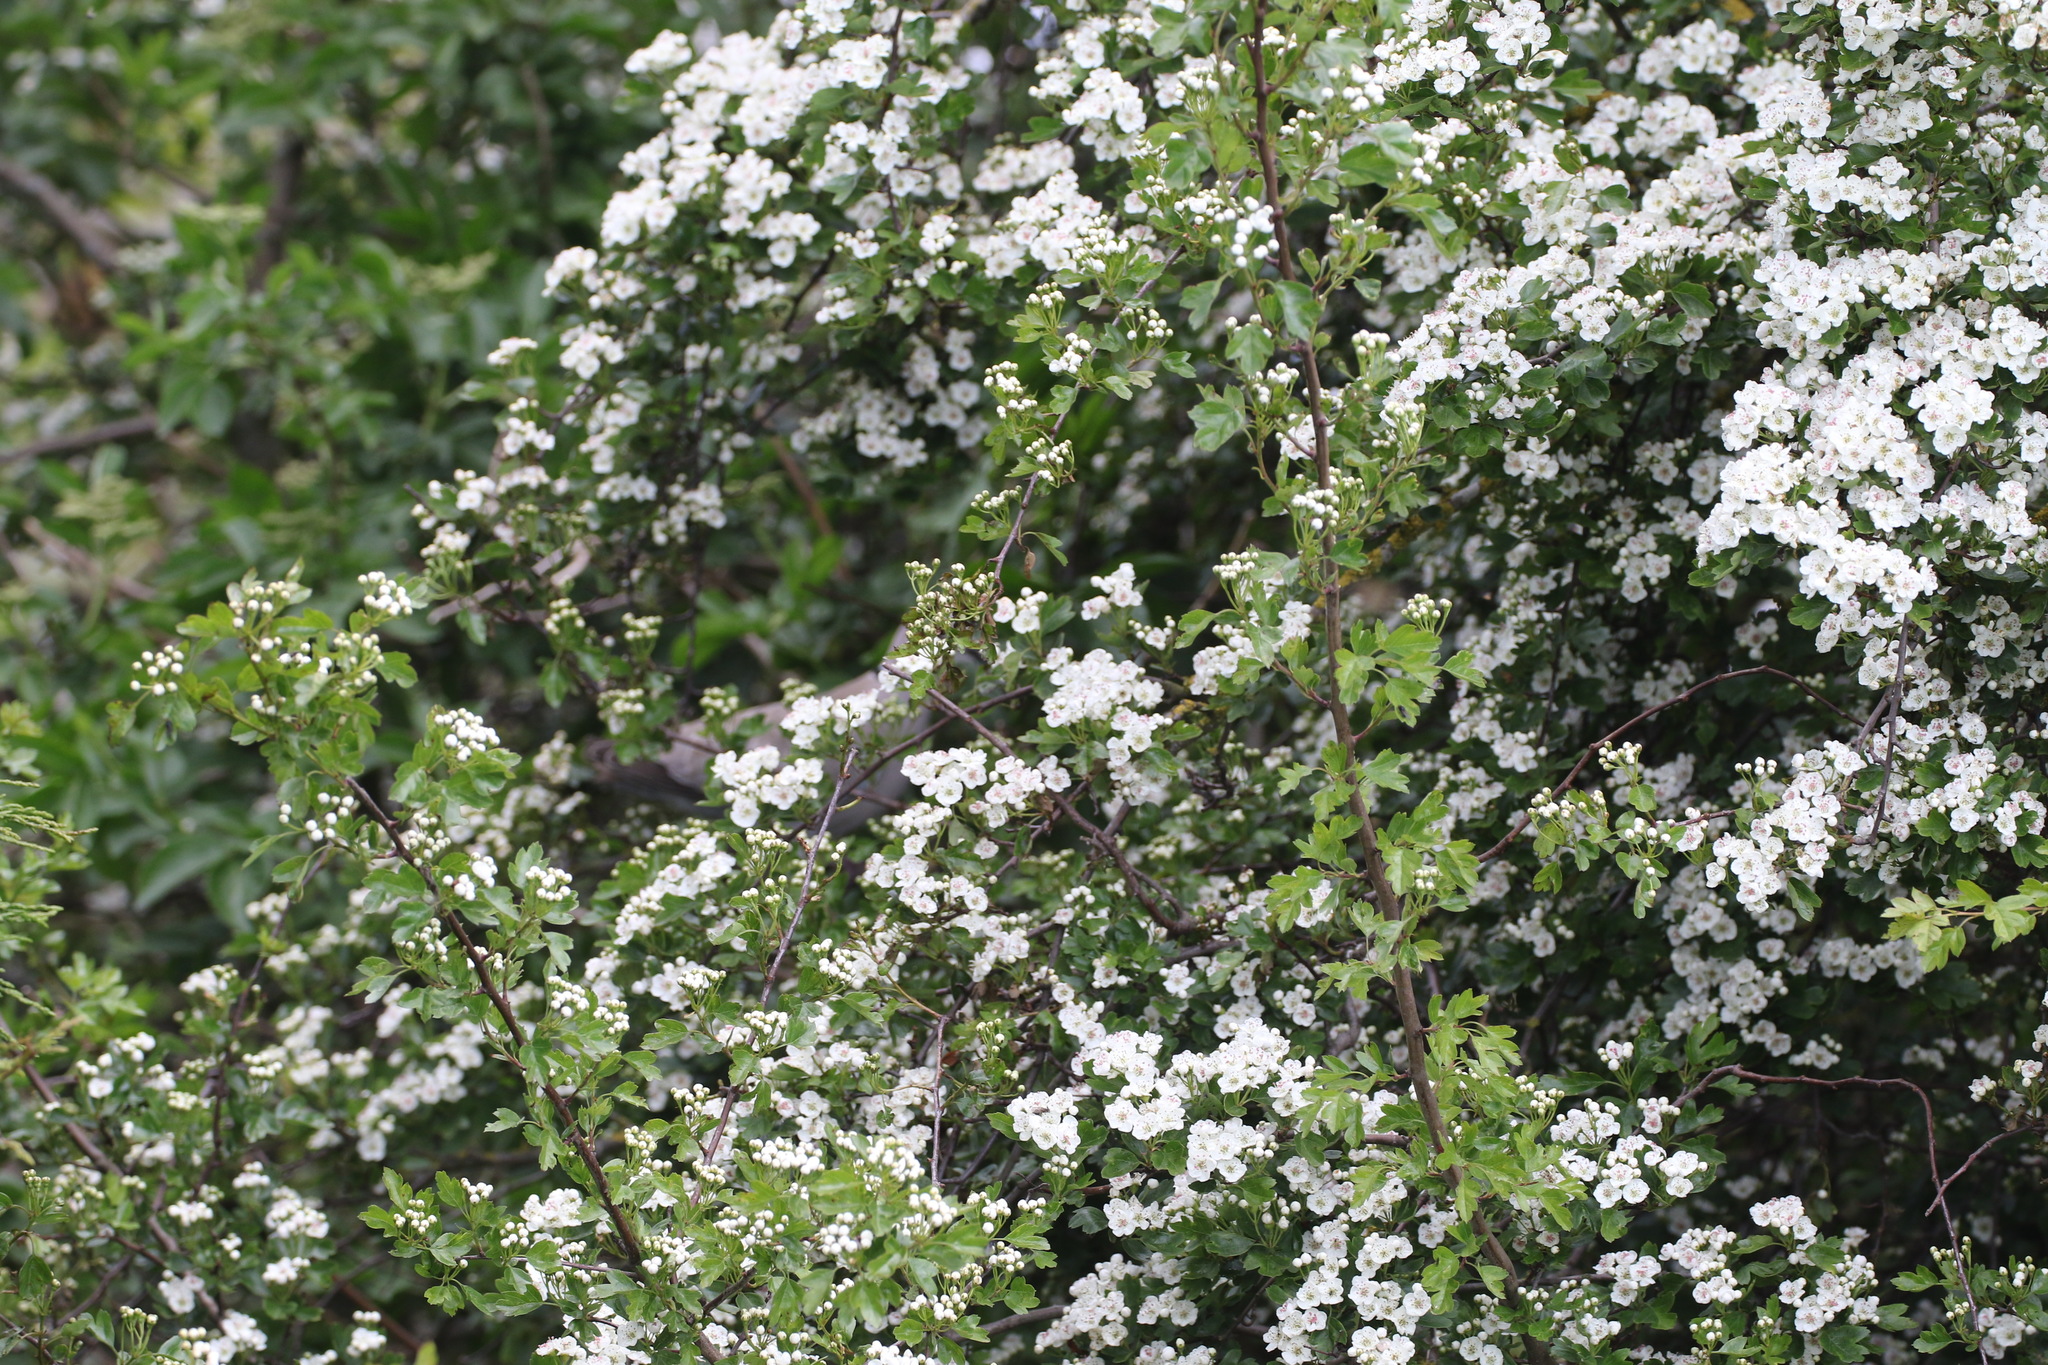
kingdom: Plantae
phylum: Tracheophyta
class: Magnoliopsida
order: Rosales
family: Rosaceae
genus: Crataegus
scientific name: Crataegus monogyna
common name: Hawthorn
